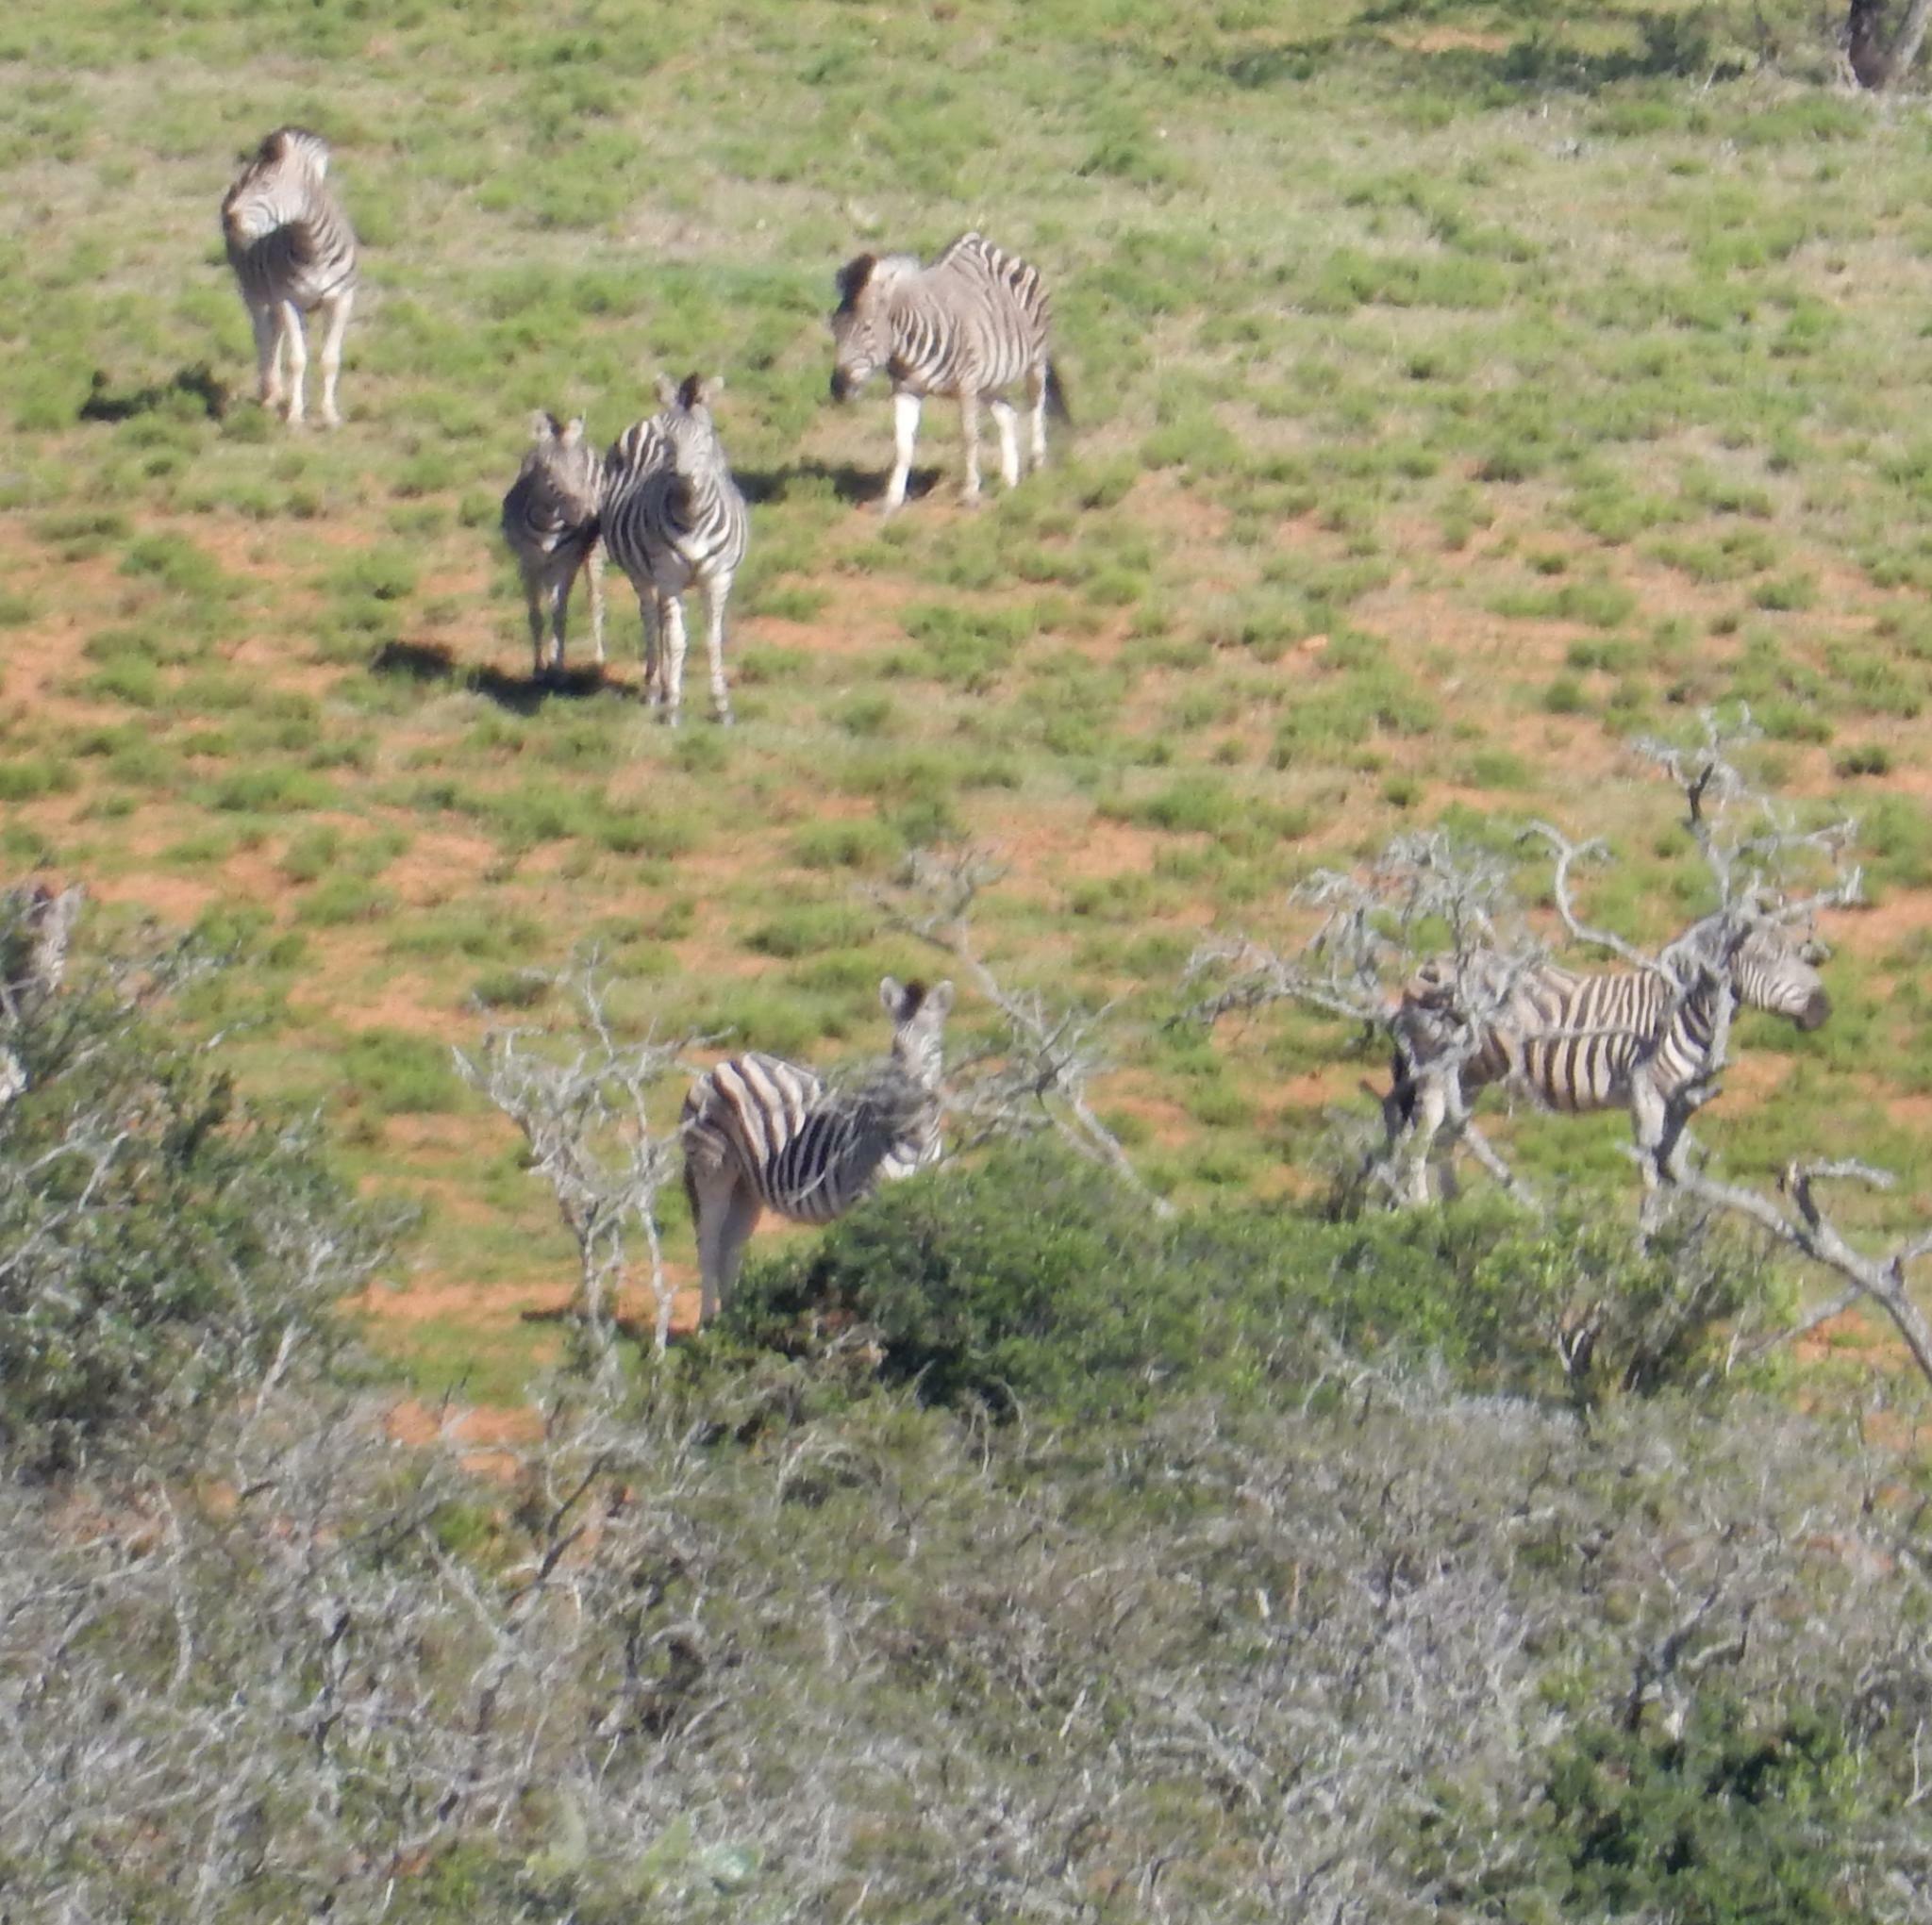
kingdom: Animalia
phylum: Chordata
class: Mammalia
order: Perissodactyla
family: Equidae
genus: Equus
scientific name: Equus quagga
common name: Plains zebra
